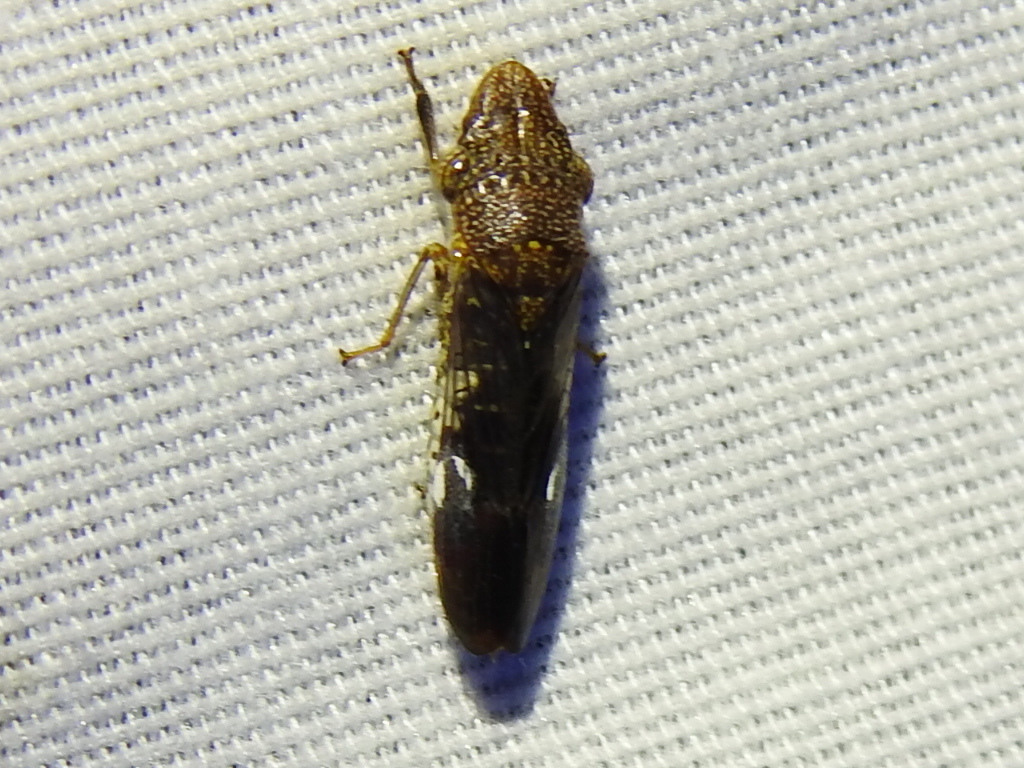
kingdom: Animalia
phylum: Arthropoda
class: Insecta
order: Hemiptera
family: Cicadellidae
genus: Homalodisca
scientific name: Homalodisca vitripennis
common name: Glassy-winged sharpshooter
